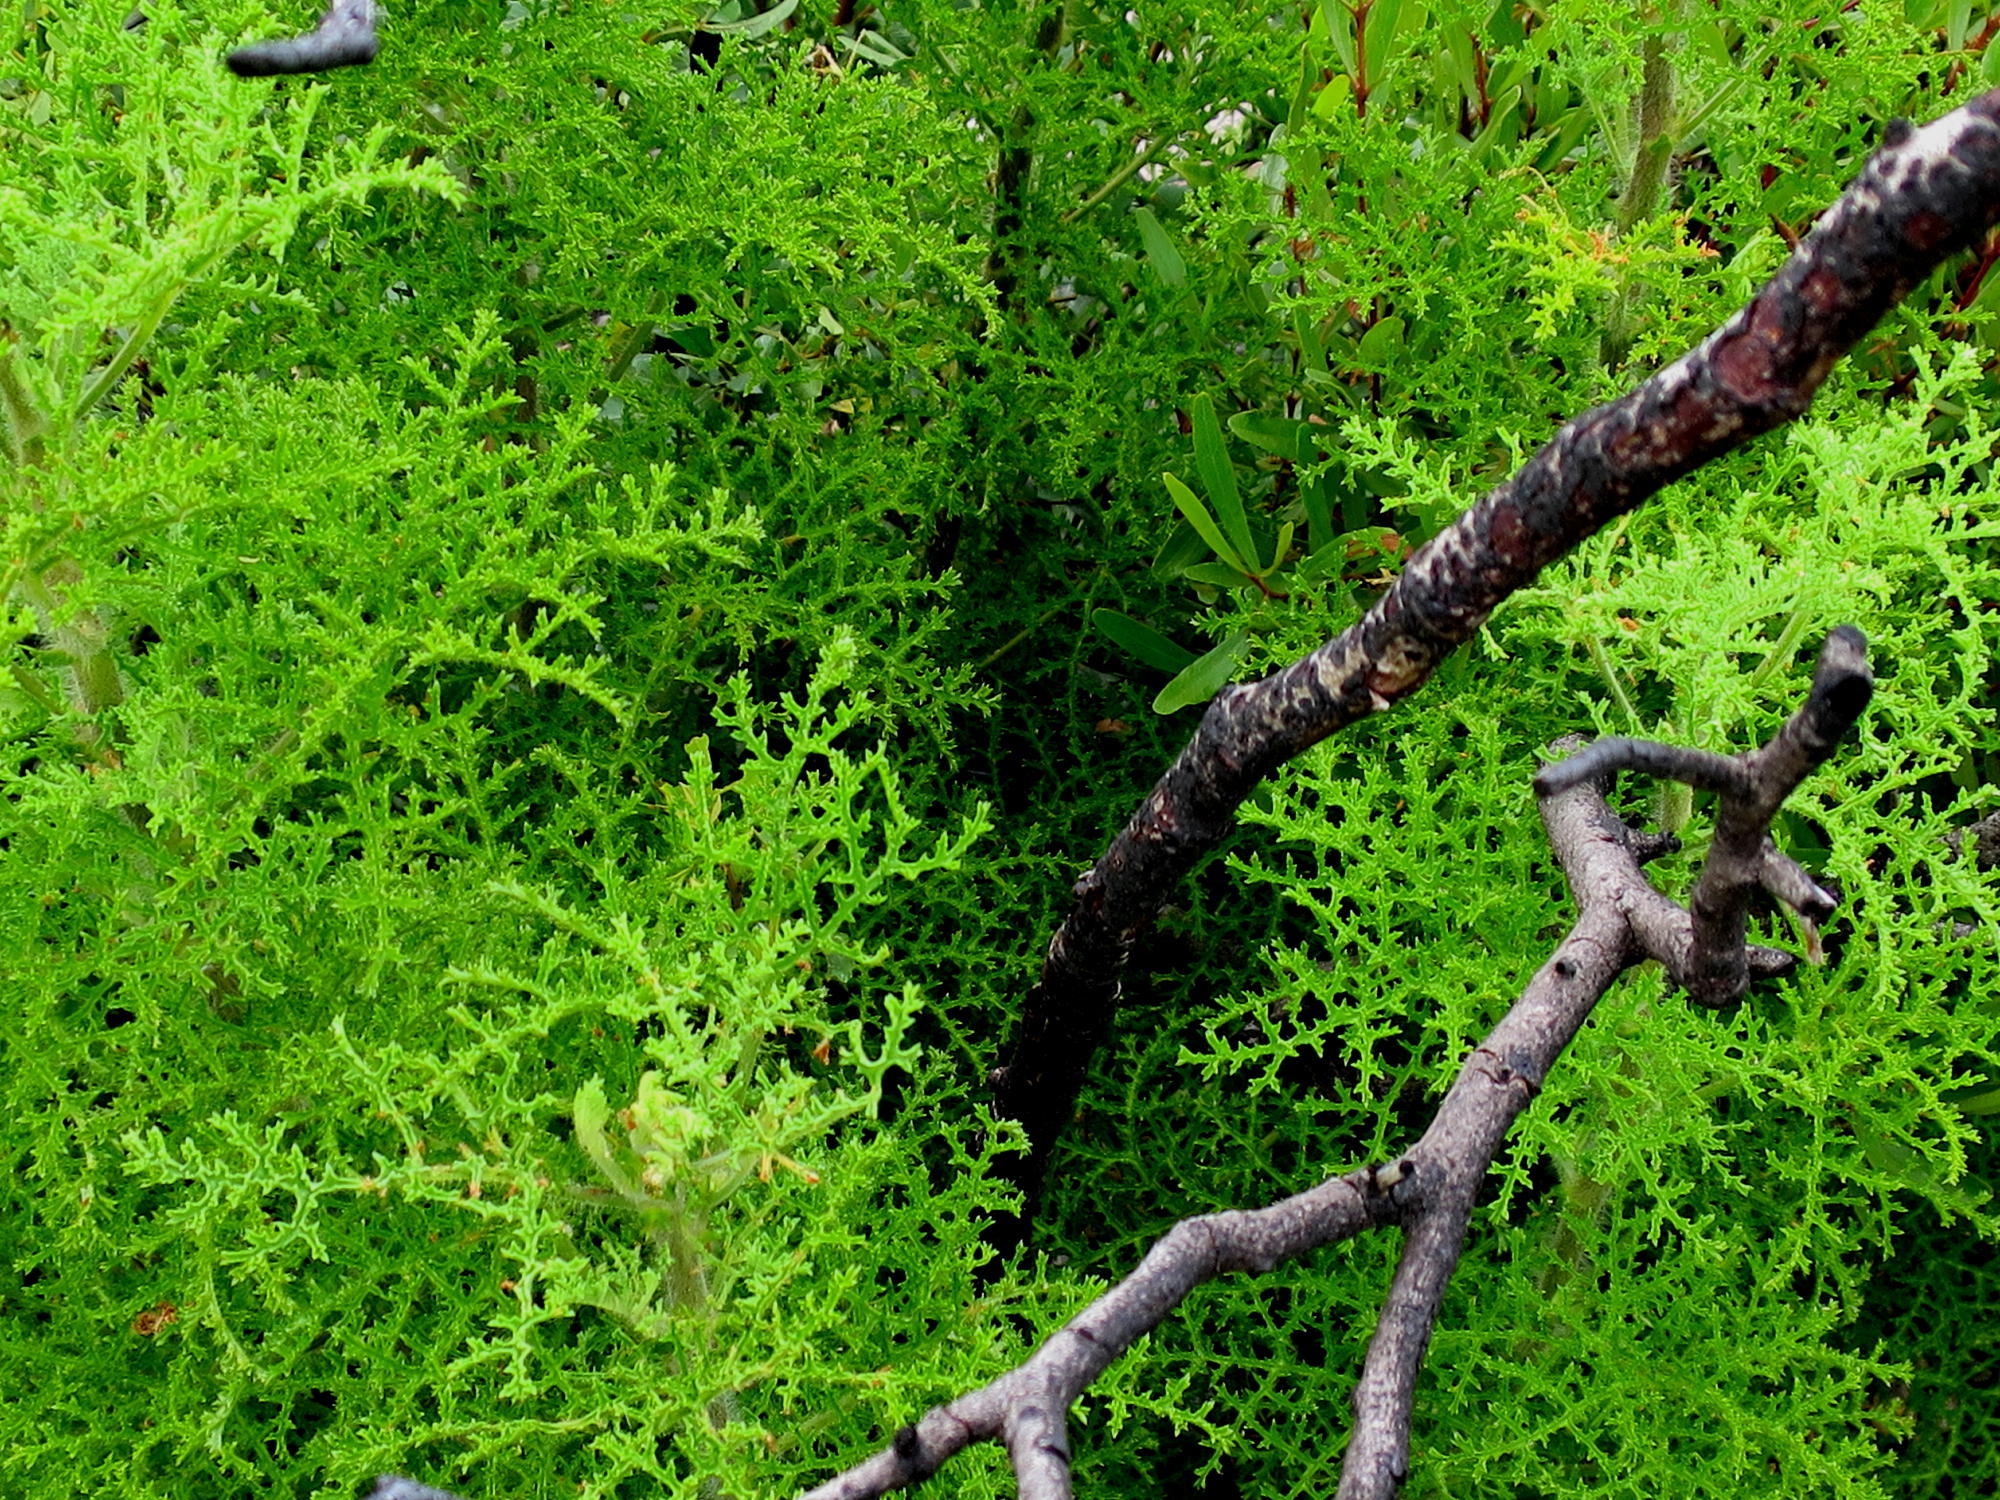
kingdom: Plantae
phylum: Tracheophyta
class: Magnoliopsida
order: Geraniales
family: Geraniaceae
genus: Pelargonium
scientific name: Pelargonium denticulatum
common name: Pine geranium
